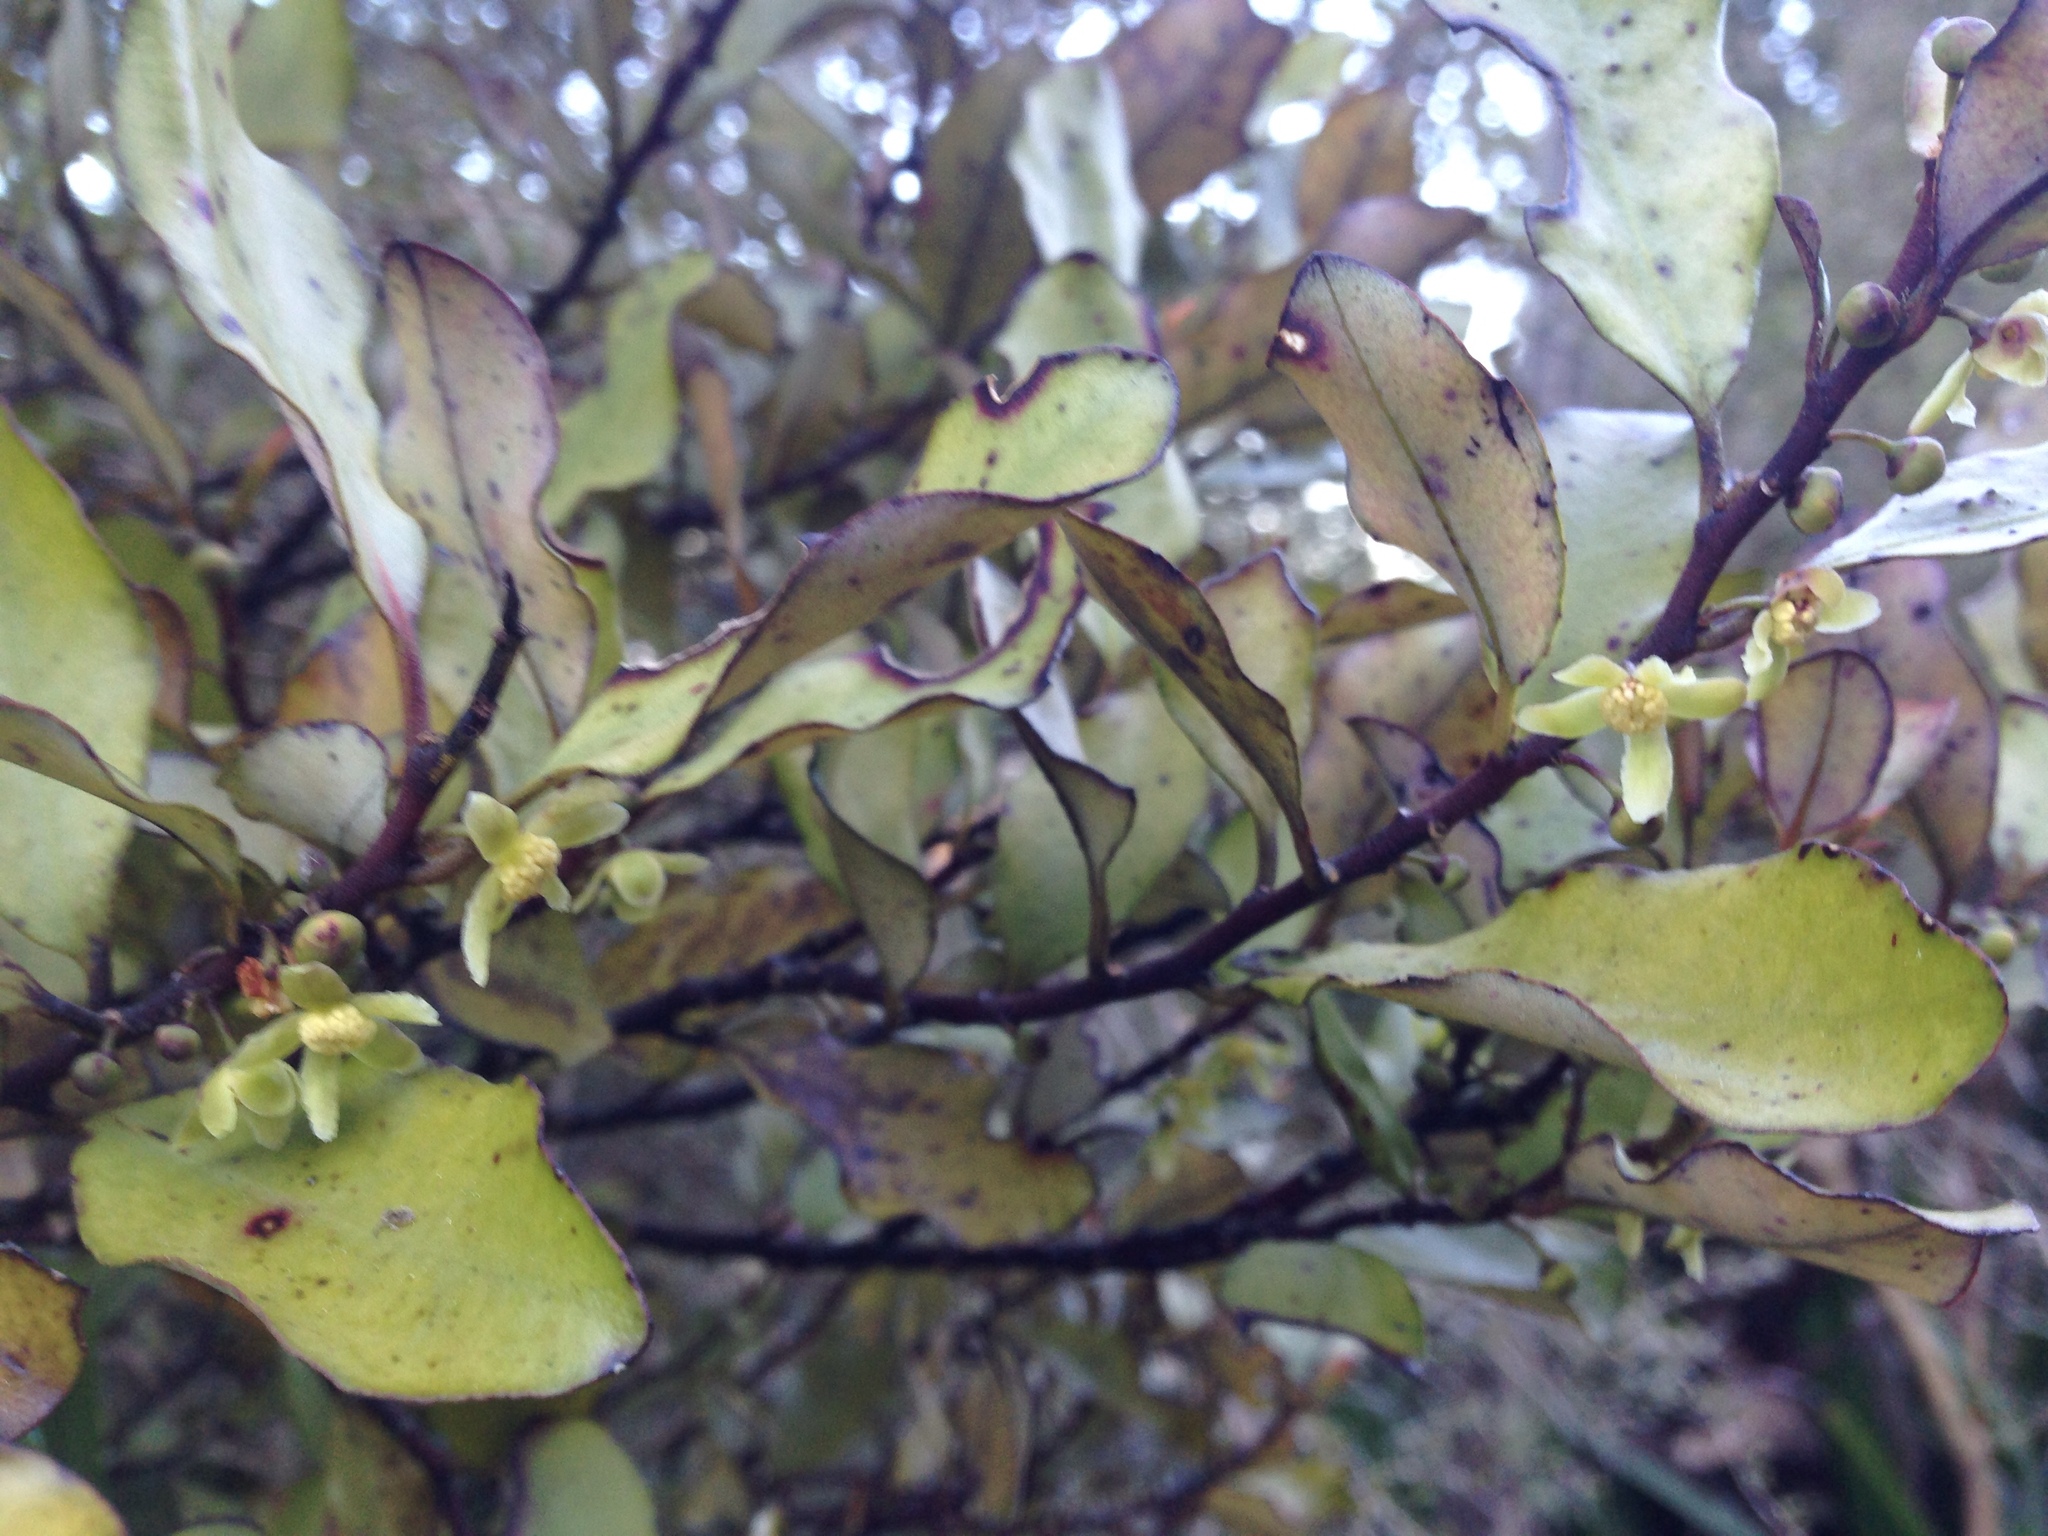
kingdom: Plantae
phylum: Tracheophyta
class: Magnoliopsida
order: Canellales
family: Winteraceae
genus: Pseudowintera
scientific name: Pseudowintera colorata
